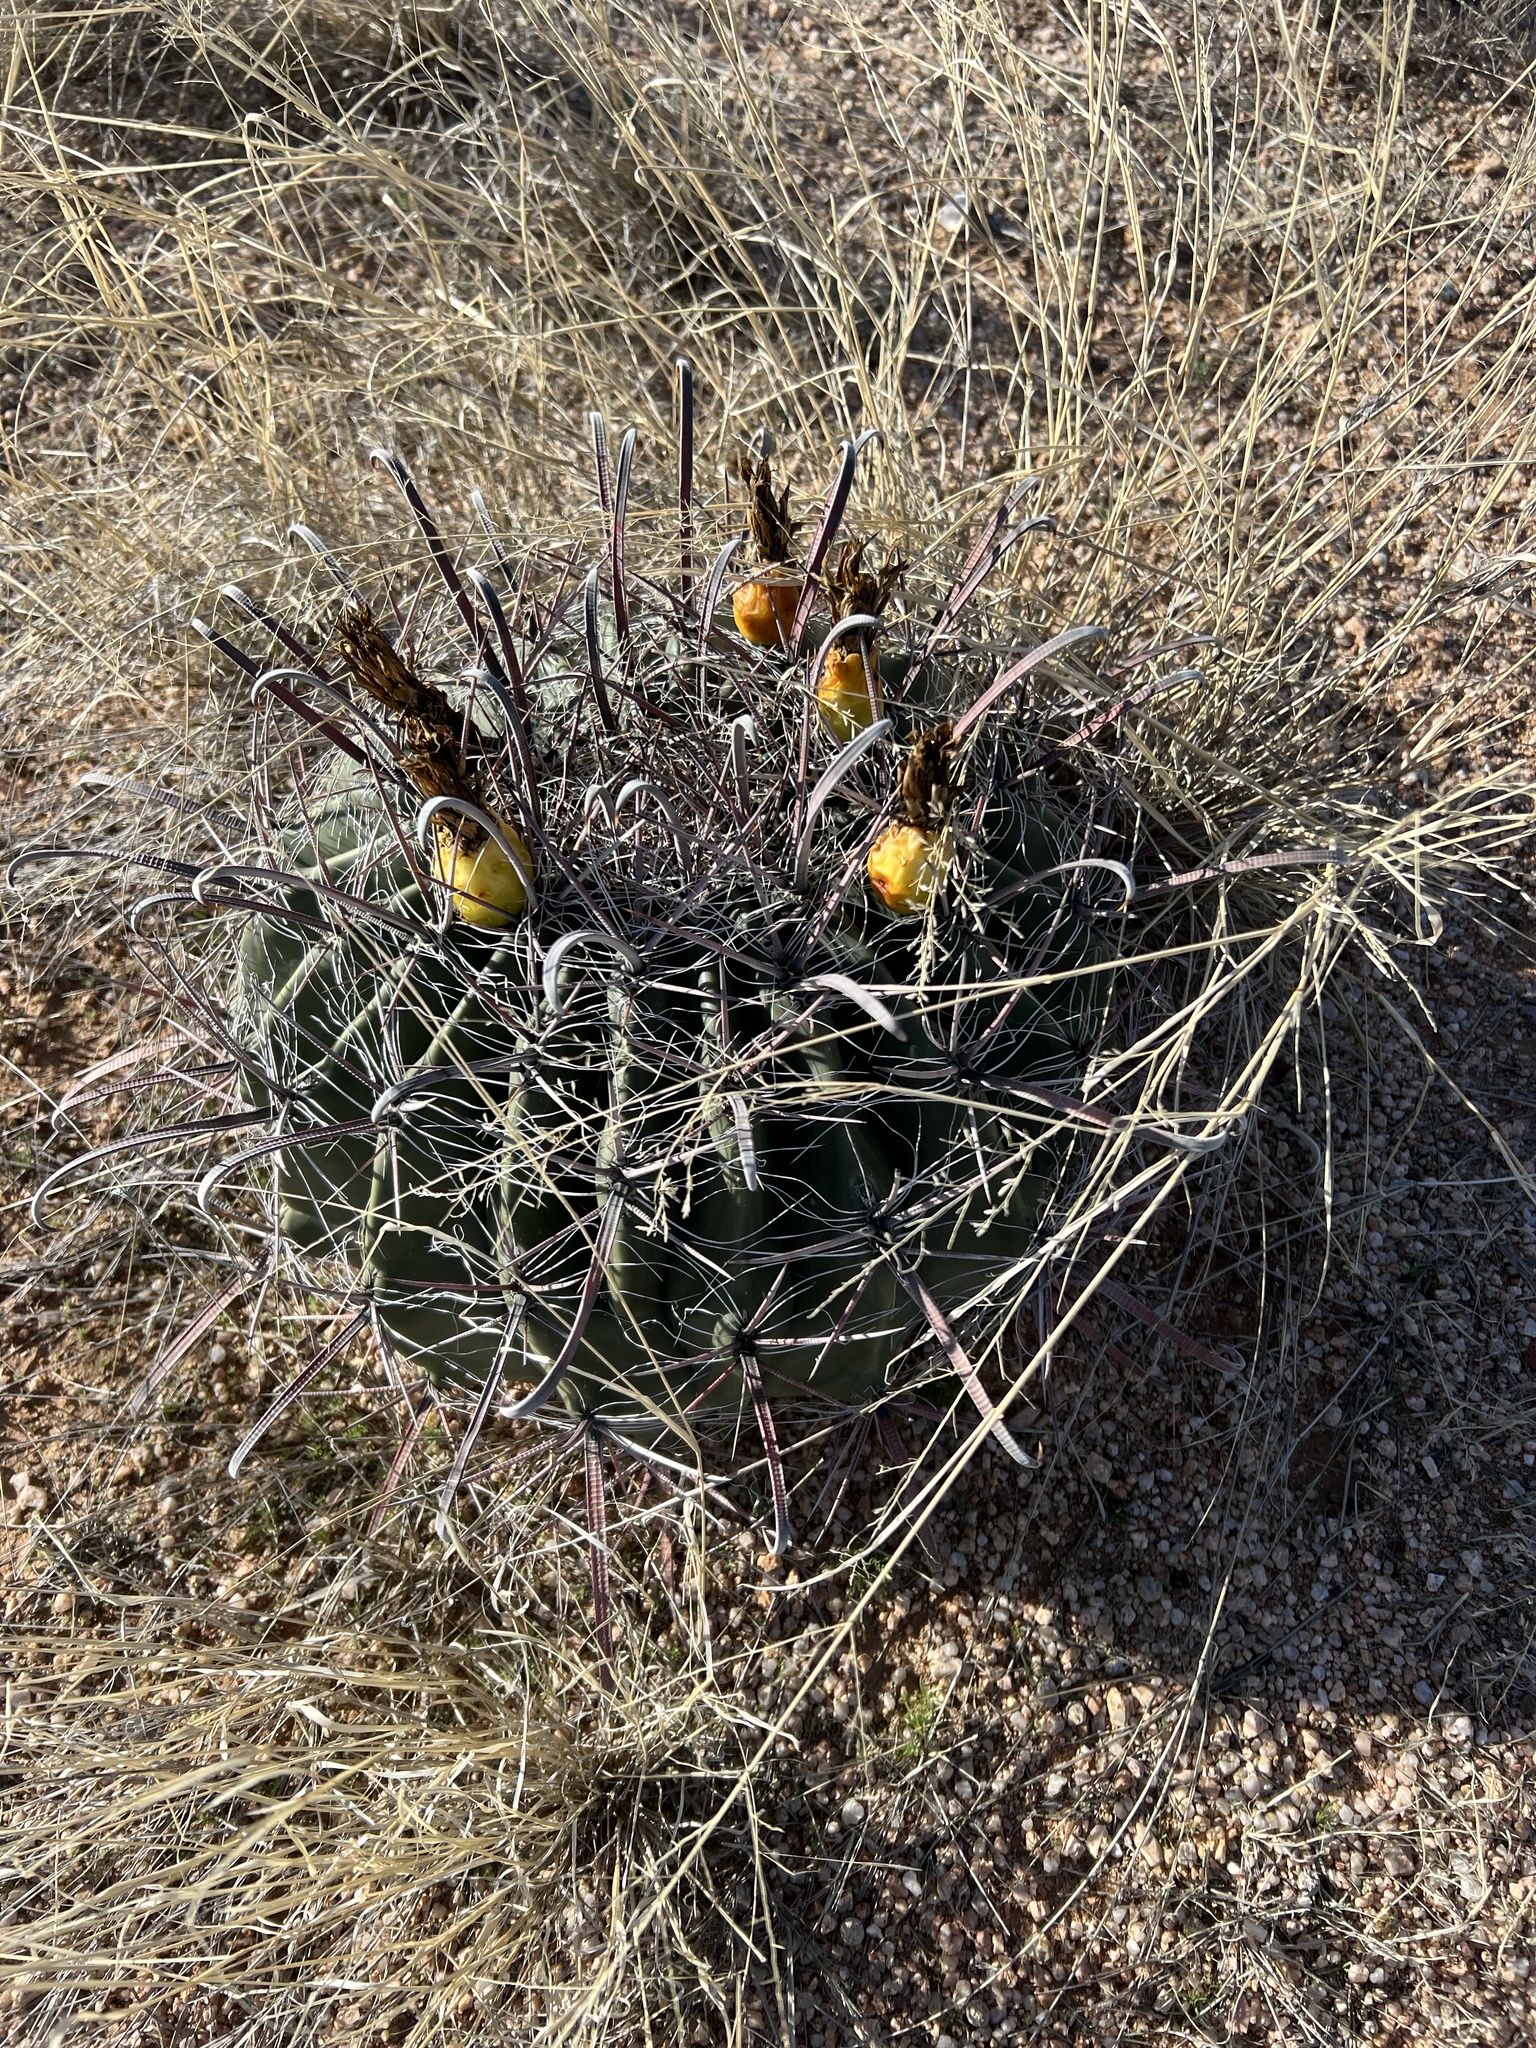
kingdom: Plantae
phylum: Tracheophyta
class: Magnoliopsida
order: Caryophyllales
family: Cactaceae
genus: Ferocactus
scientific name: Ferocactus wislizeni
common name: Candy barrel cactus
